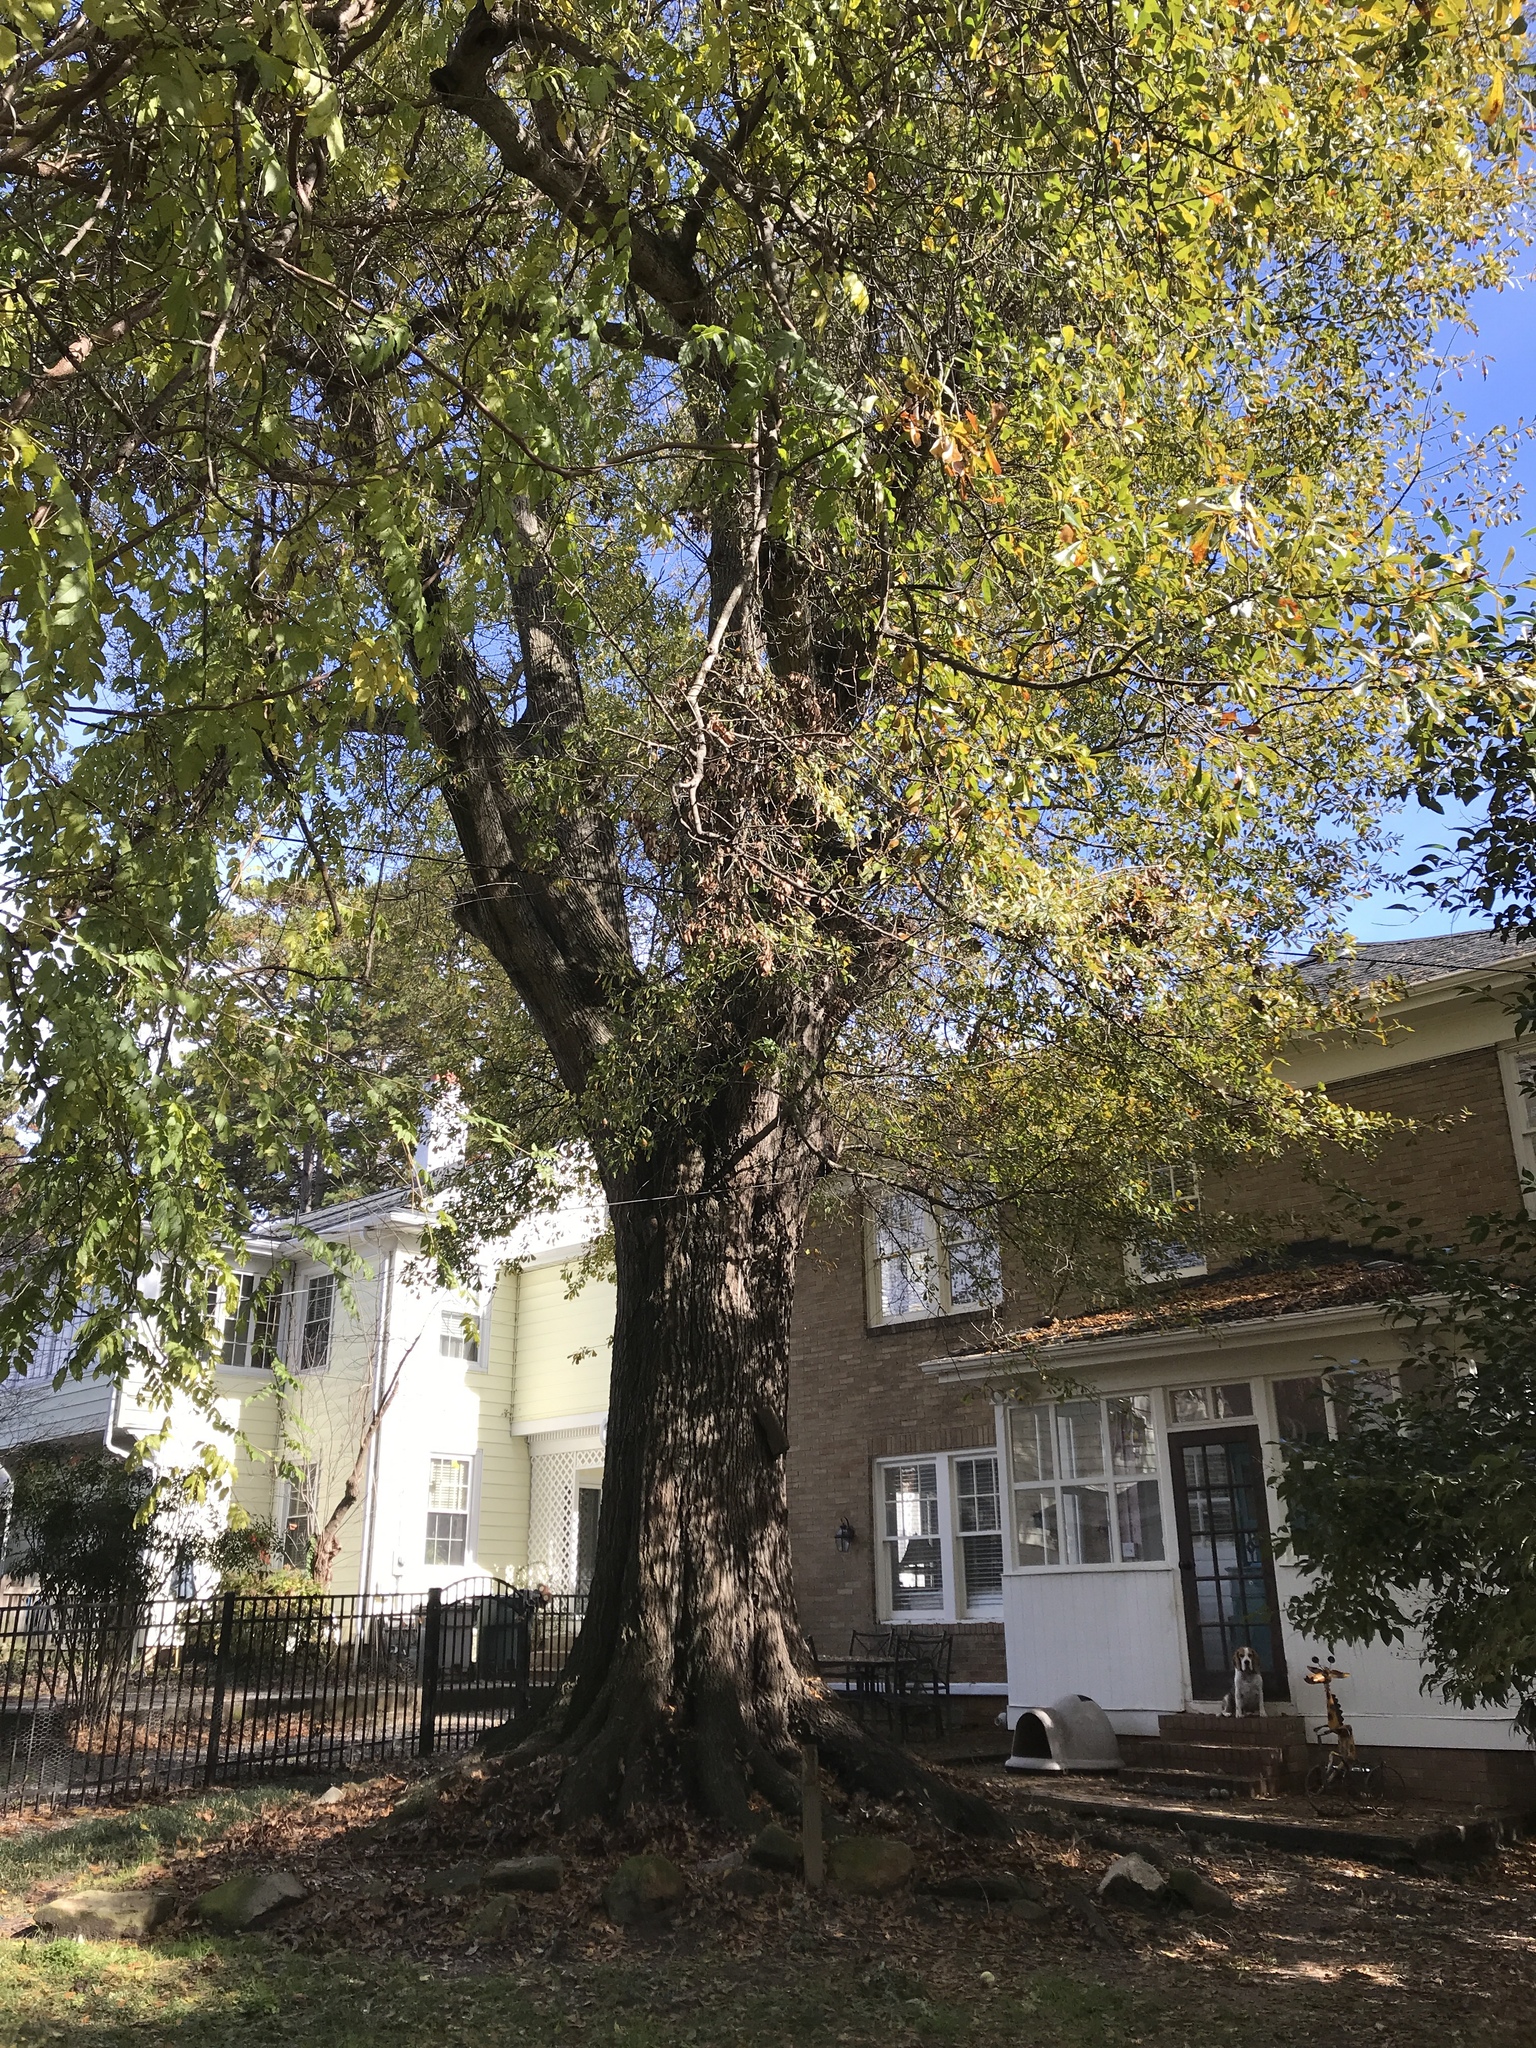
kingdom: Plantae
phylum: Tracheophyta
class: Magnoliopsida
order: Fagales
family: Fagaceae
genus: Quercus
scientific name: Quercus nigra
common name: Water oak
